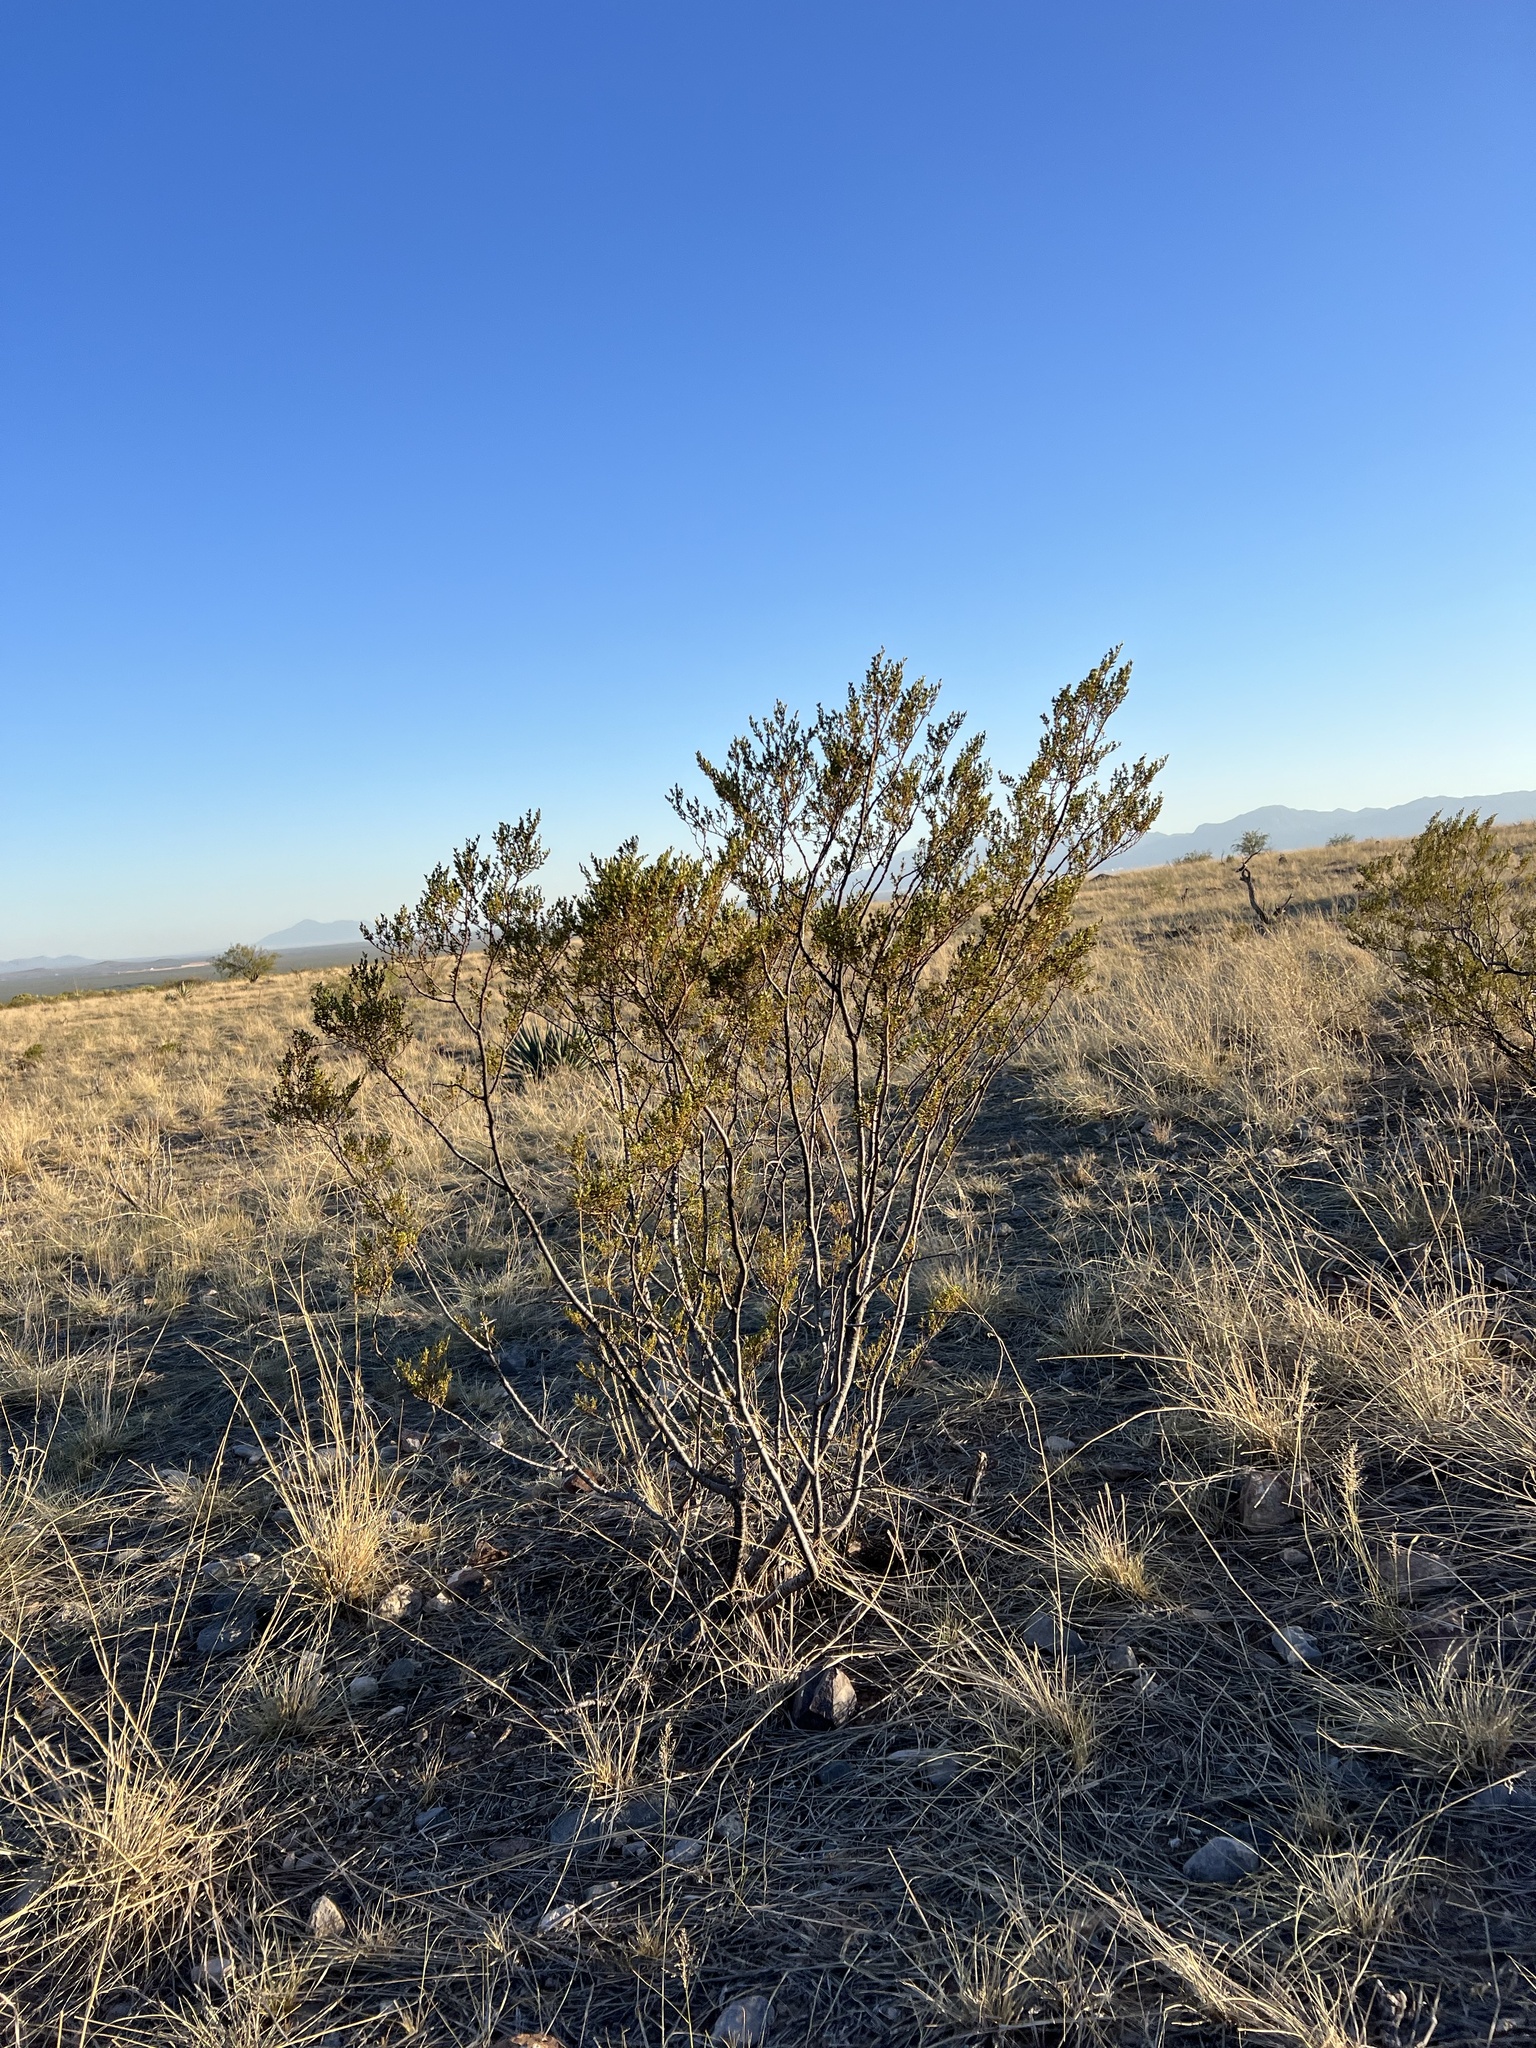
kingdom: Plantae
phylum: Tracheophyta
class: Magnoliopsida
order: Zygophyllales
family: Zygophyllaceae
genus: Larrea
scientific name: Larrea tridentata
